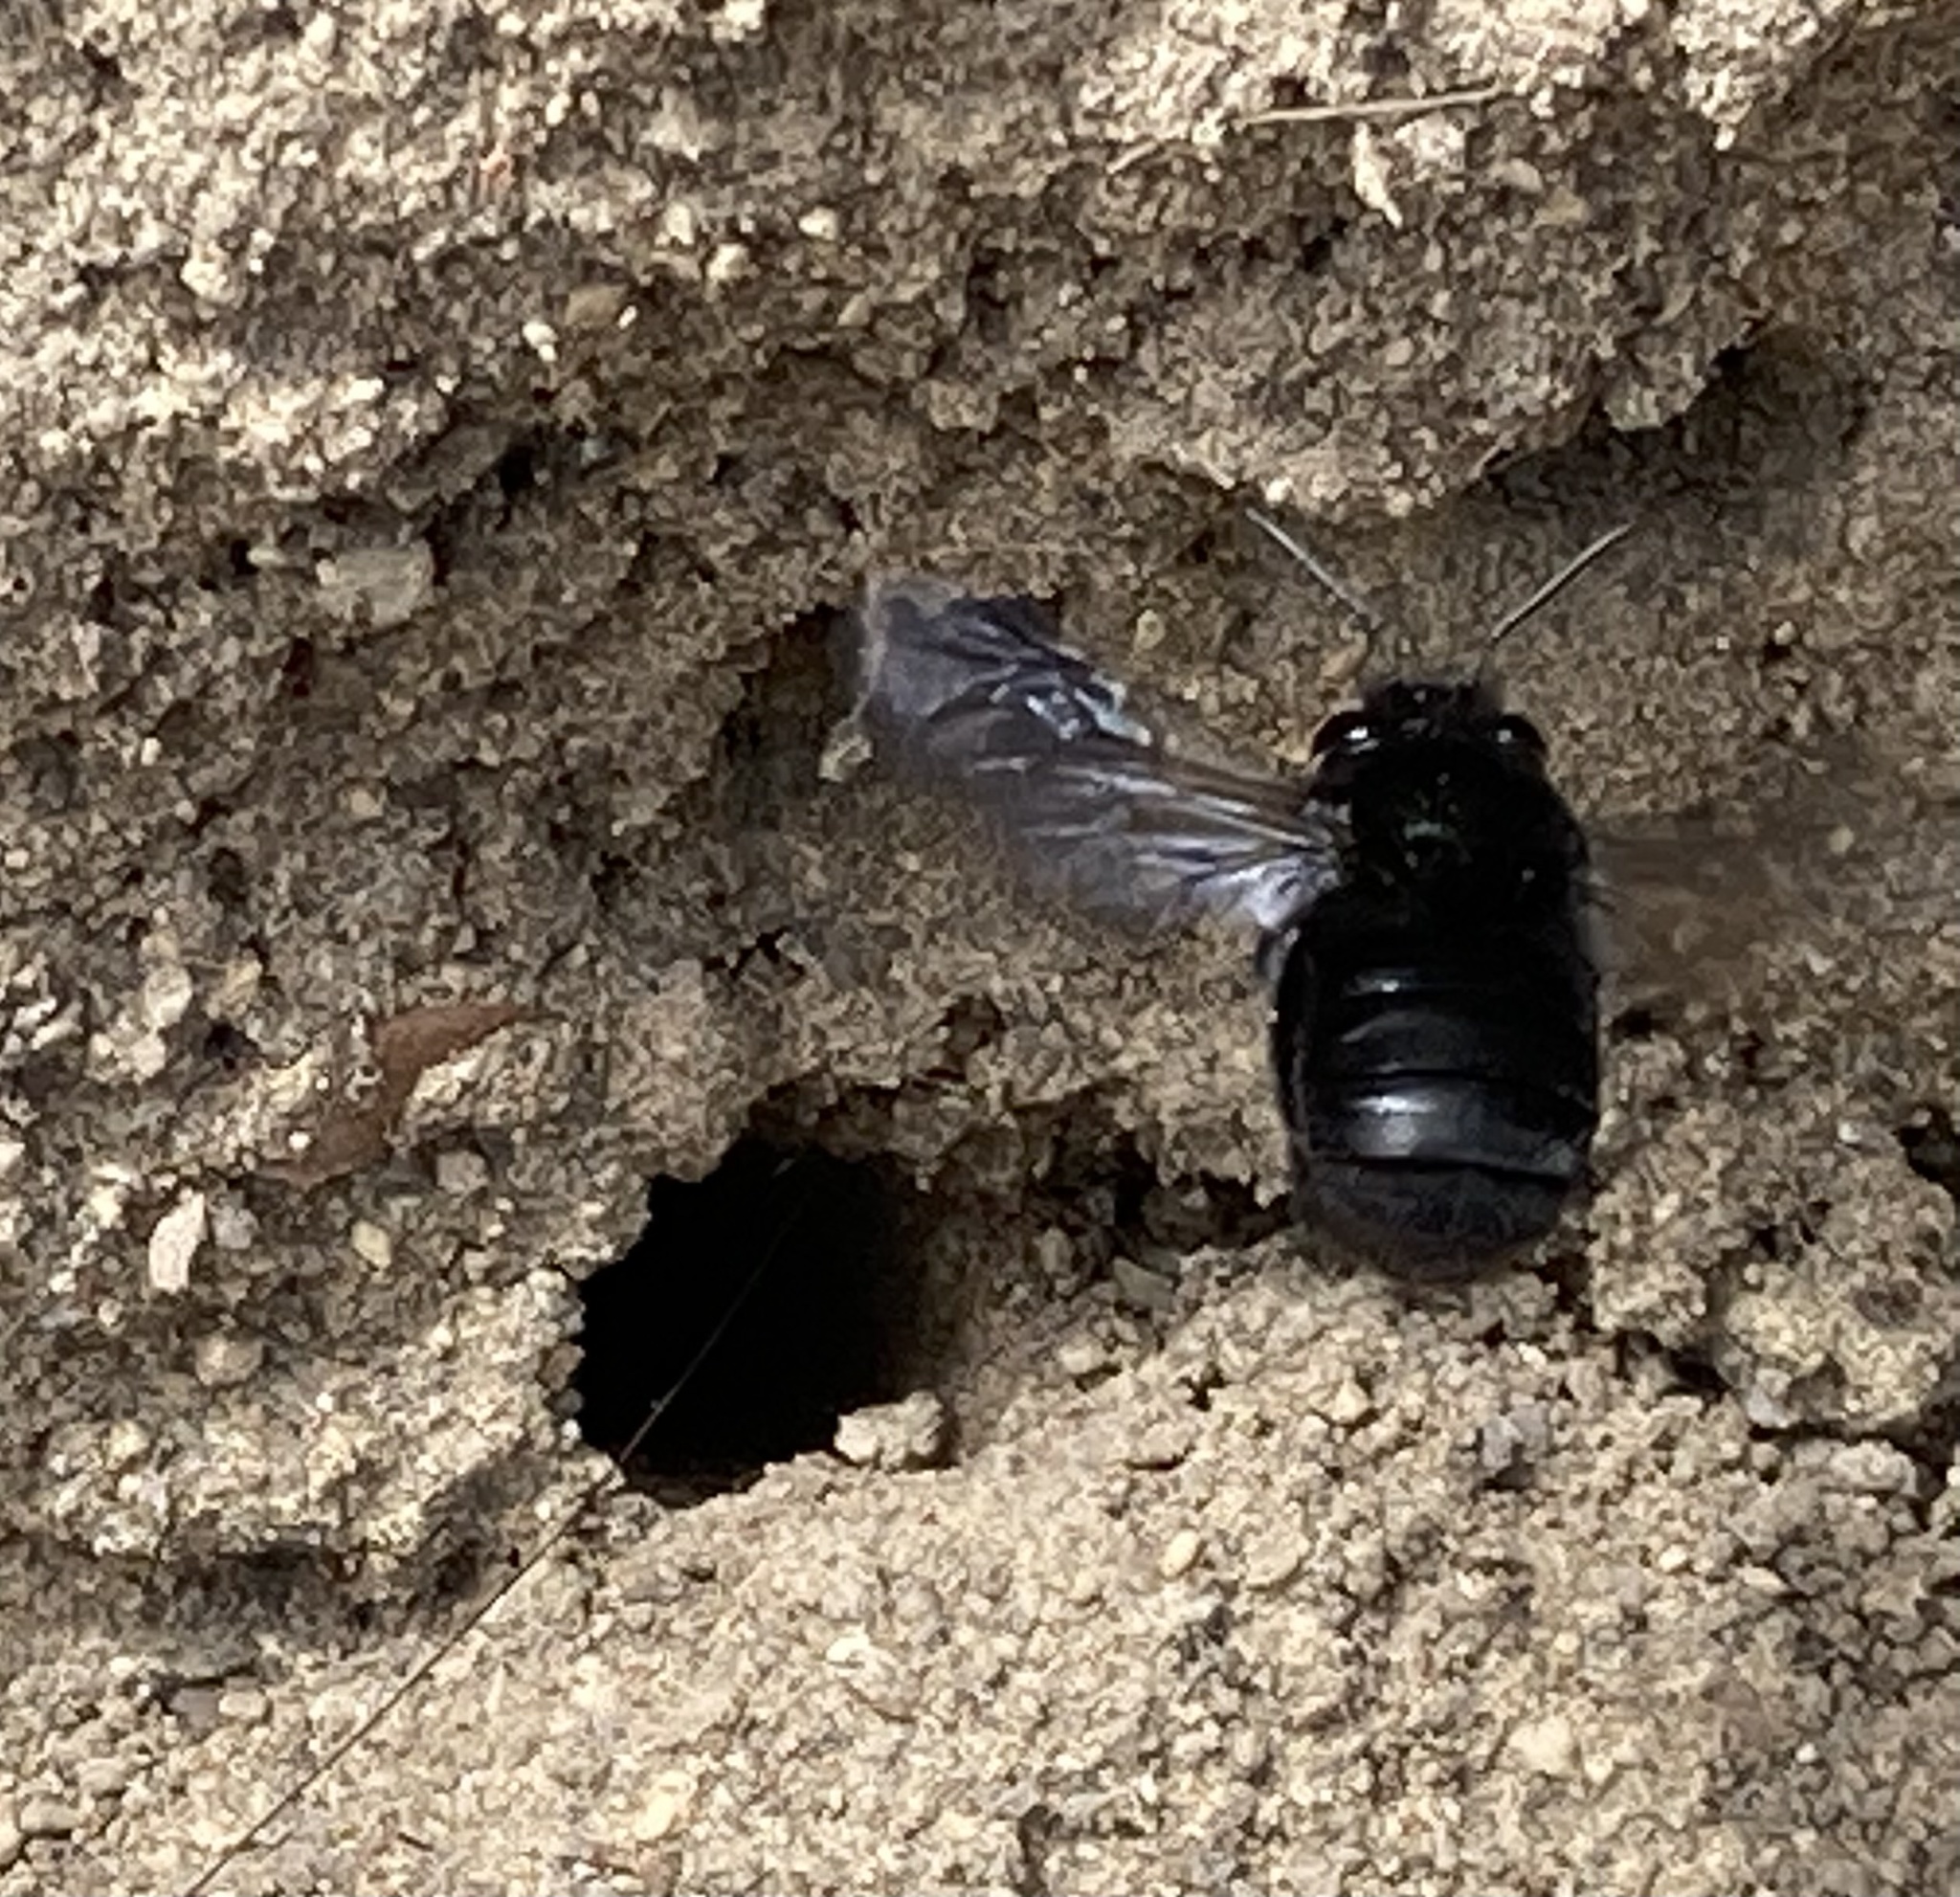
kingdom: Animalia
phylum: Arthropoda
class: Insecta
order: Hymenoptera
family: Apidae
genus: Thygater
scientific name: Thygater aethiops
